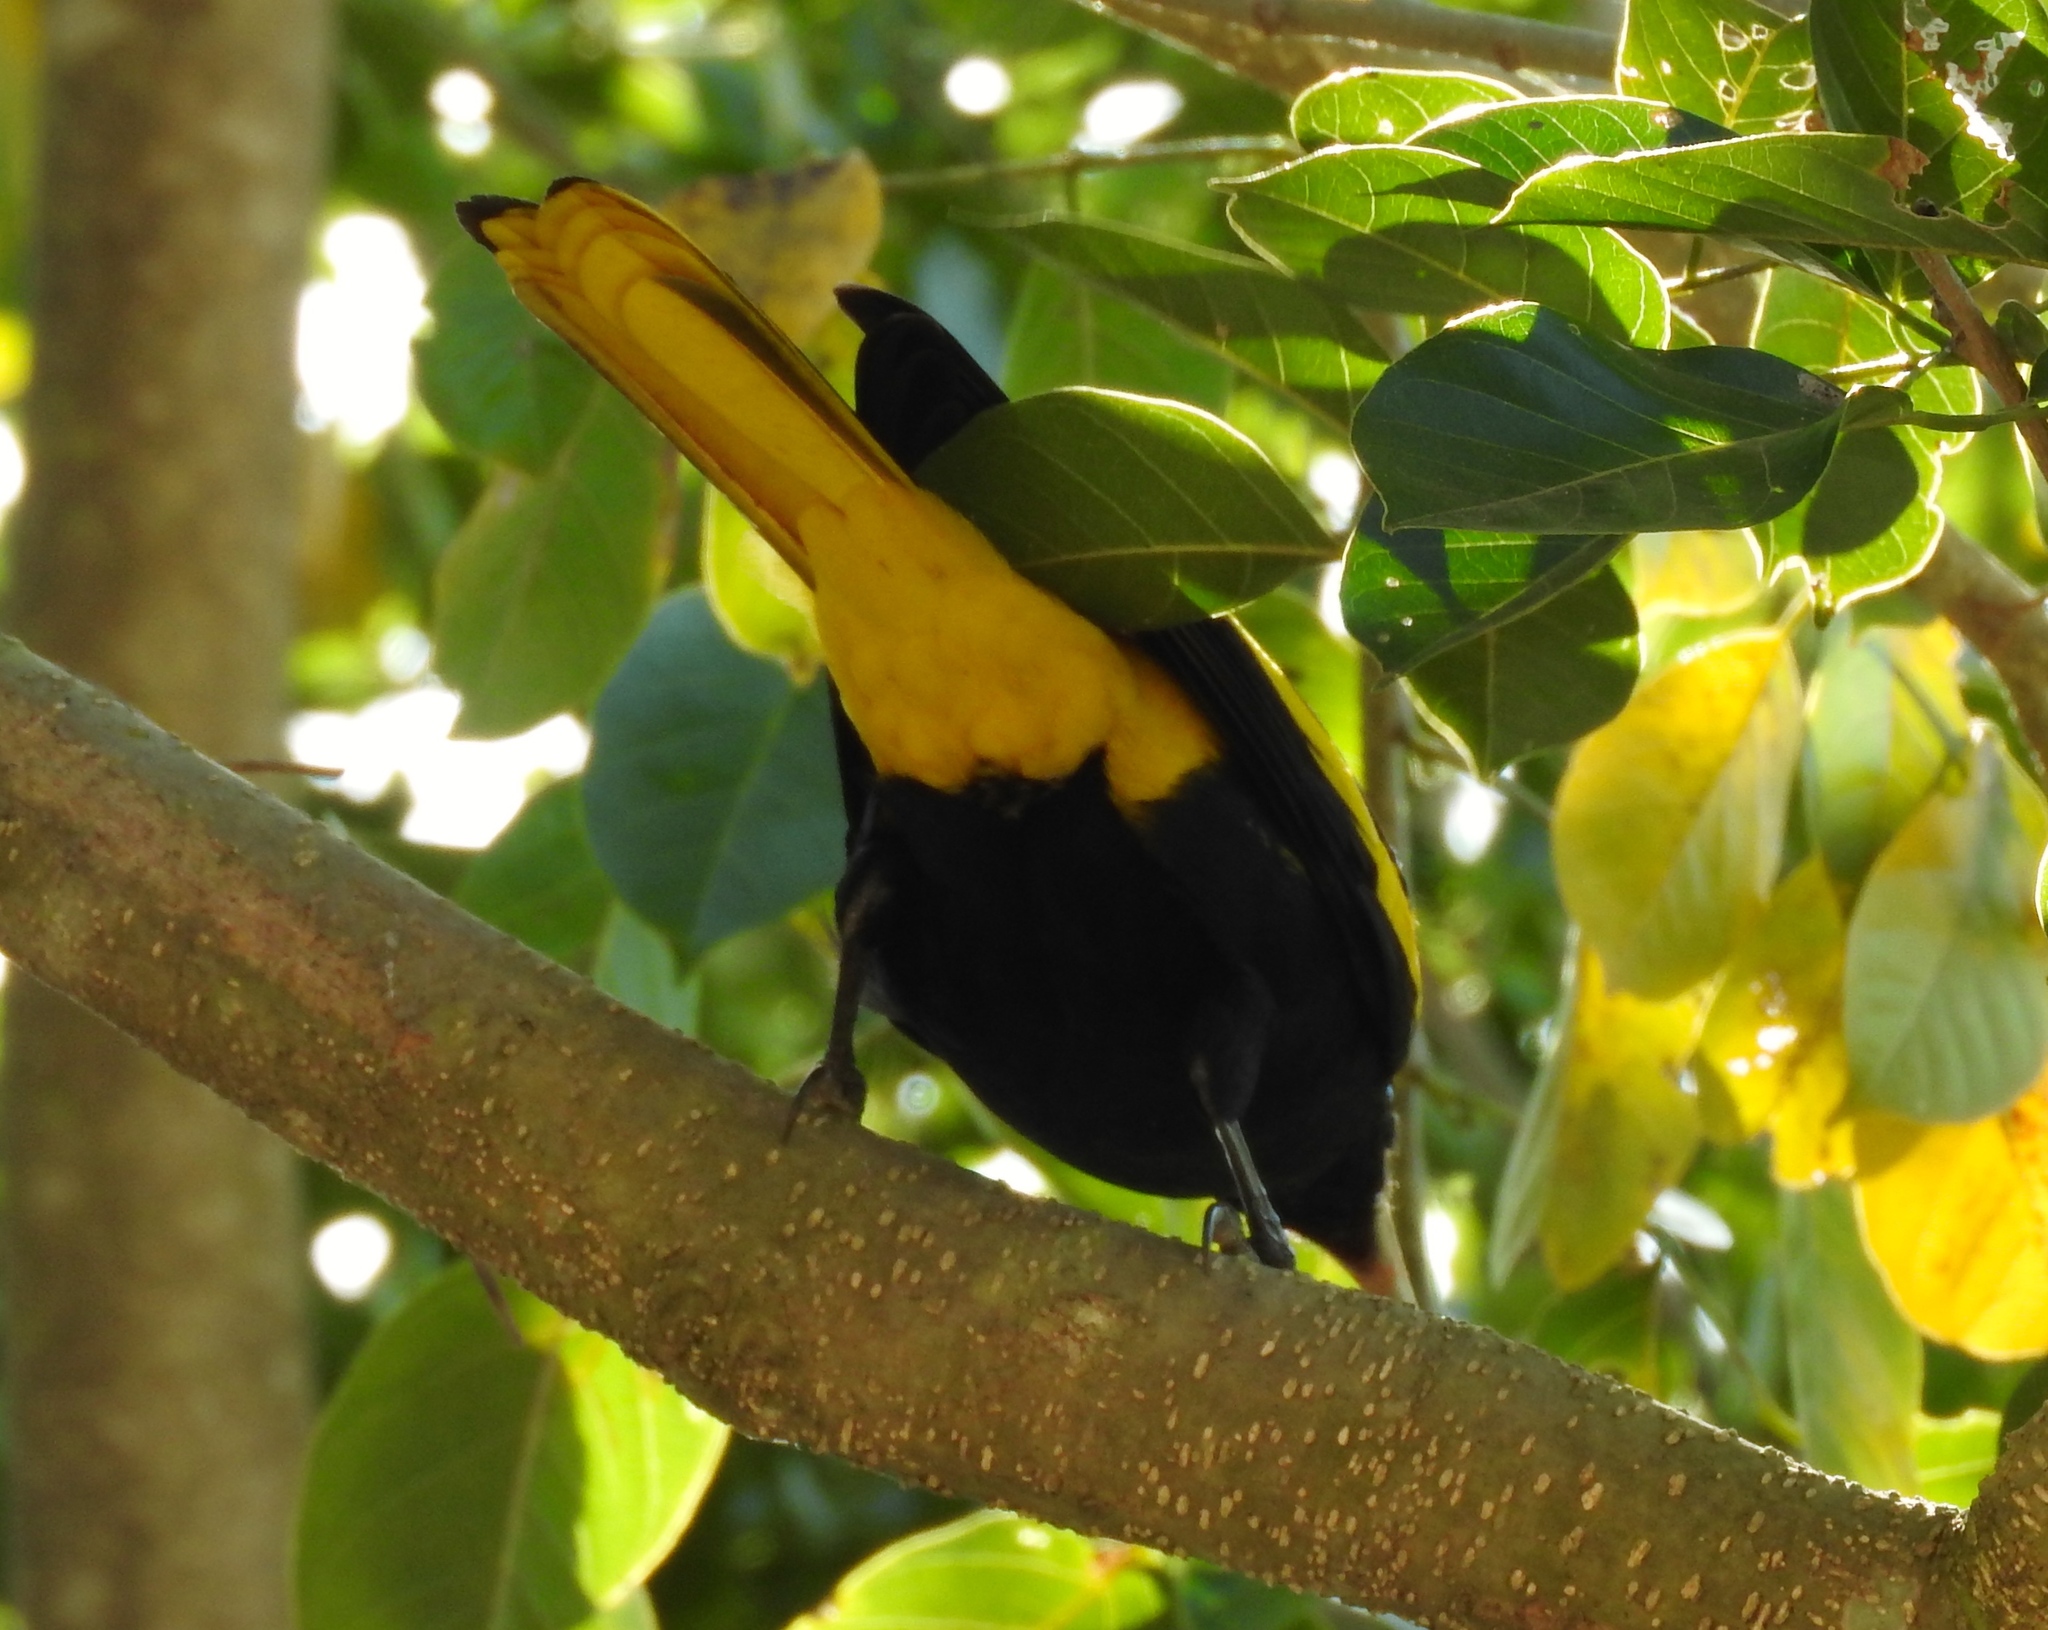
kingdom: Animalia
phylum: Chordata
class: Aves
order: Passeriformes
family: Icteridae
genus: Cacicus
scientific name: Cacicus melanicterus
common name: Yellow-winged cacique
